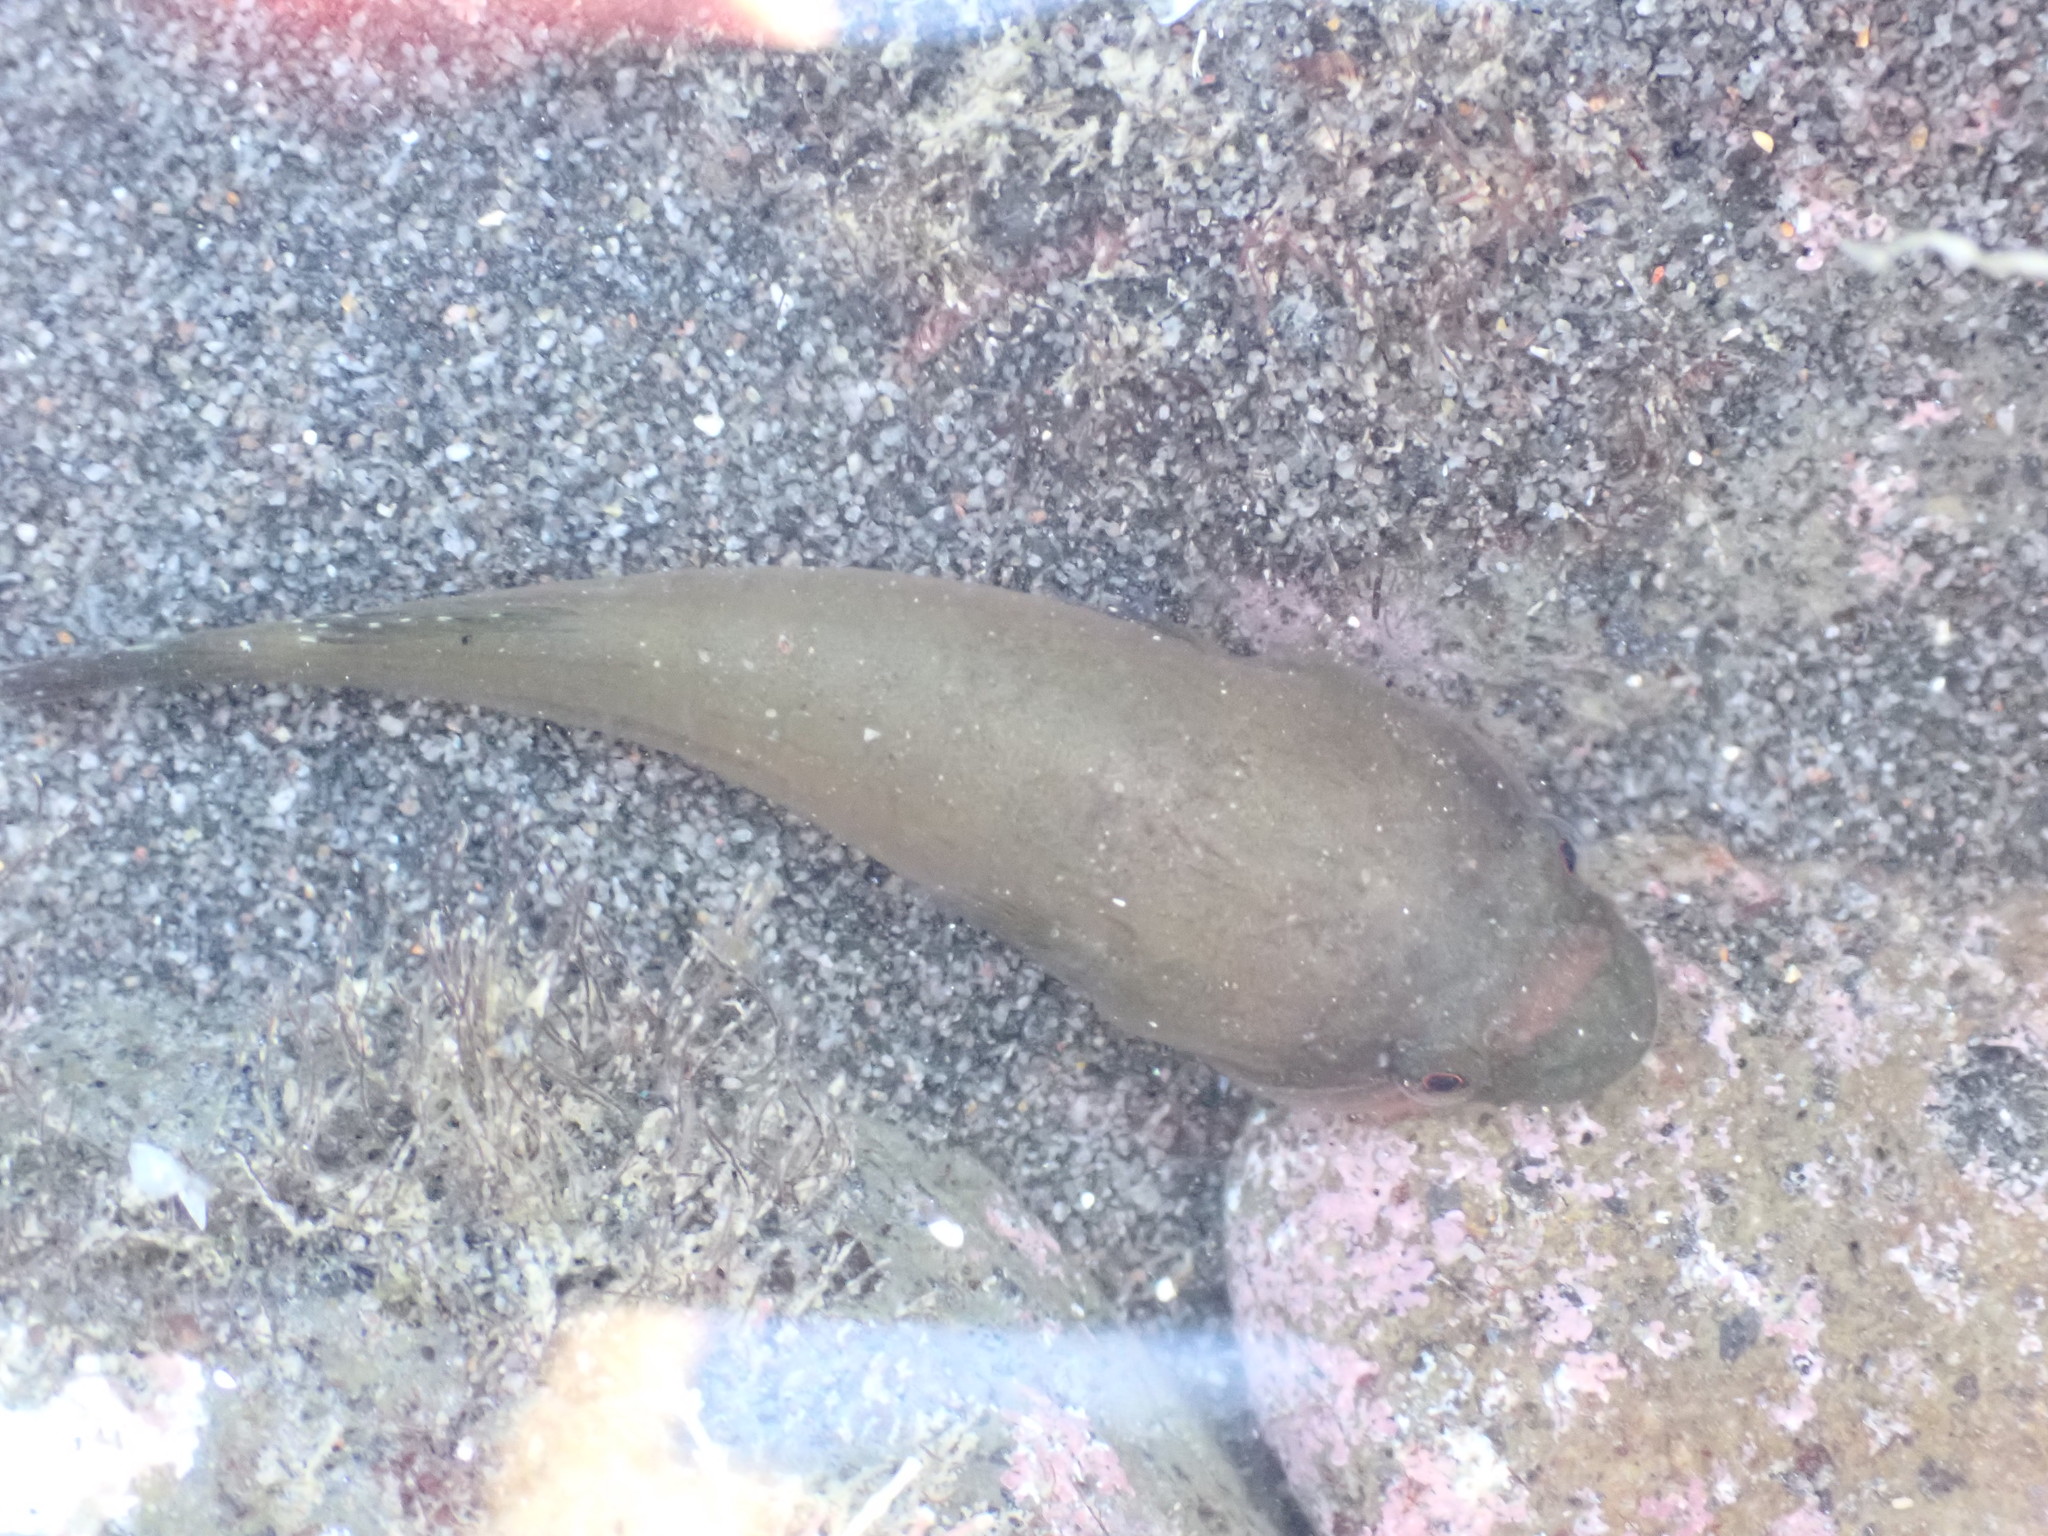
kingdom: Animalia
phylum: Chordata
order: Gobiesociformes
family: Gobiesocidae
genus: Trachelochismus
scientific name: Trachelochismus pinnulatus
